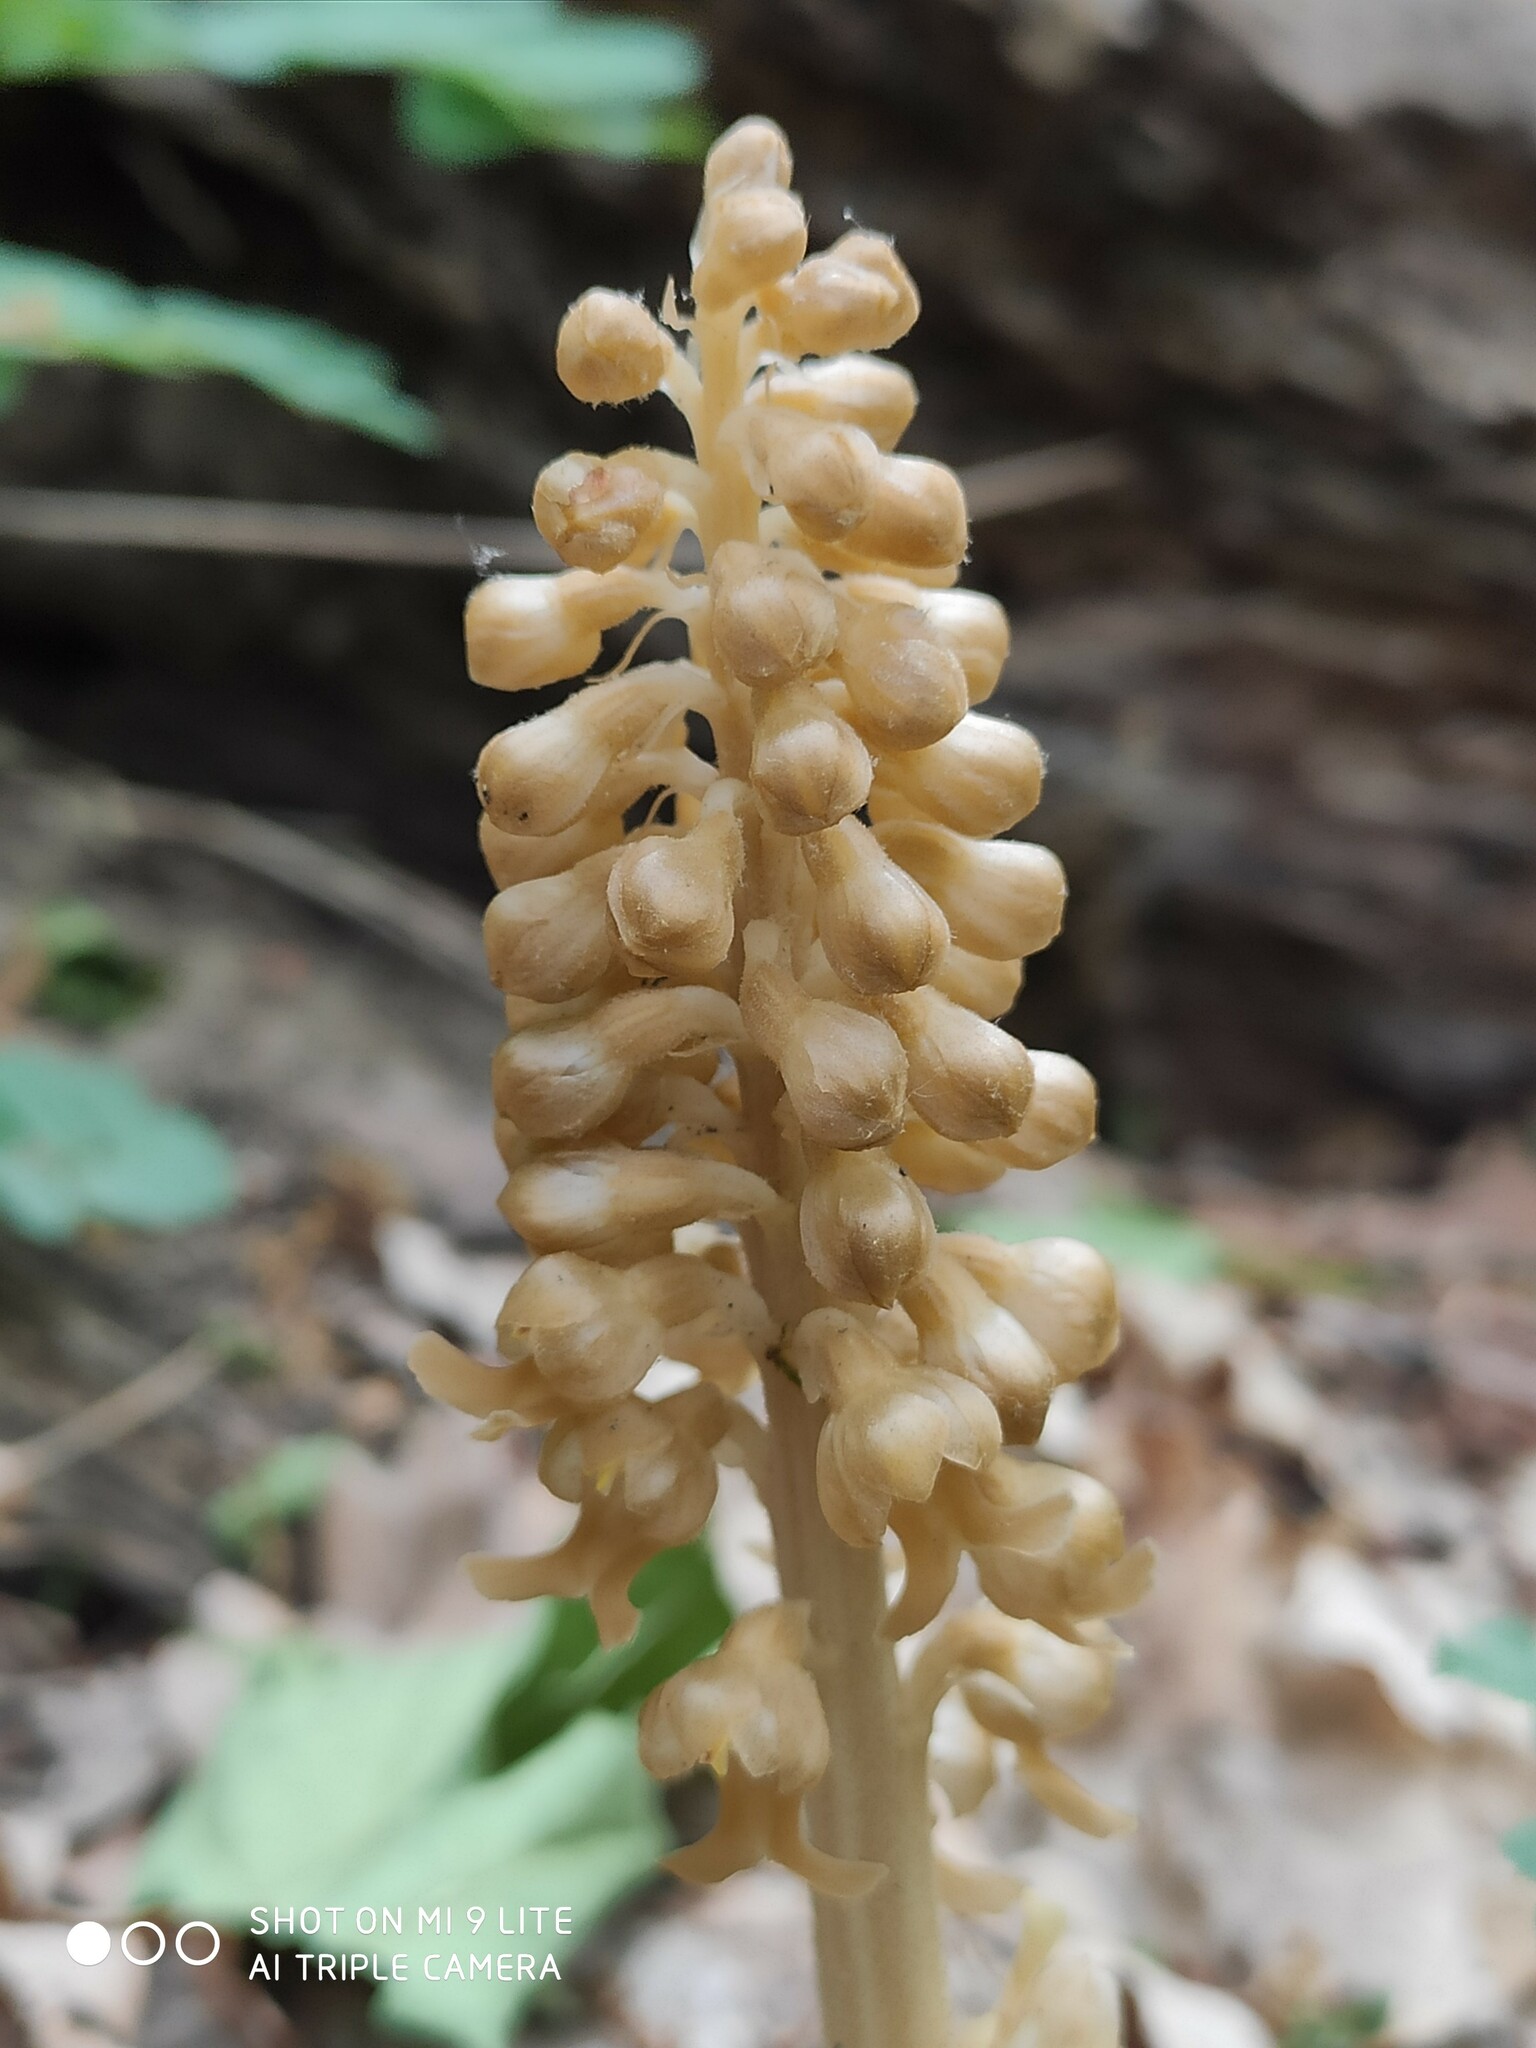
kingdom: Plantae
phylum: Tracheophyta
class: Liliopsida
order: Asparagales
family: Orchidaceae
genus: Neottia
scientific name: Neottia nidus-avis
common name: Bird's-nest orchid
